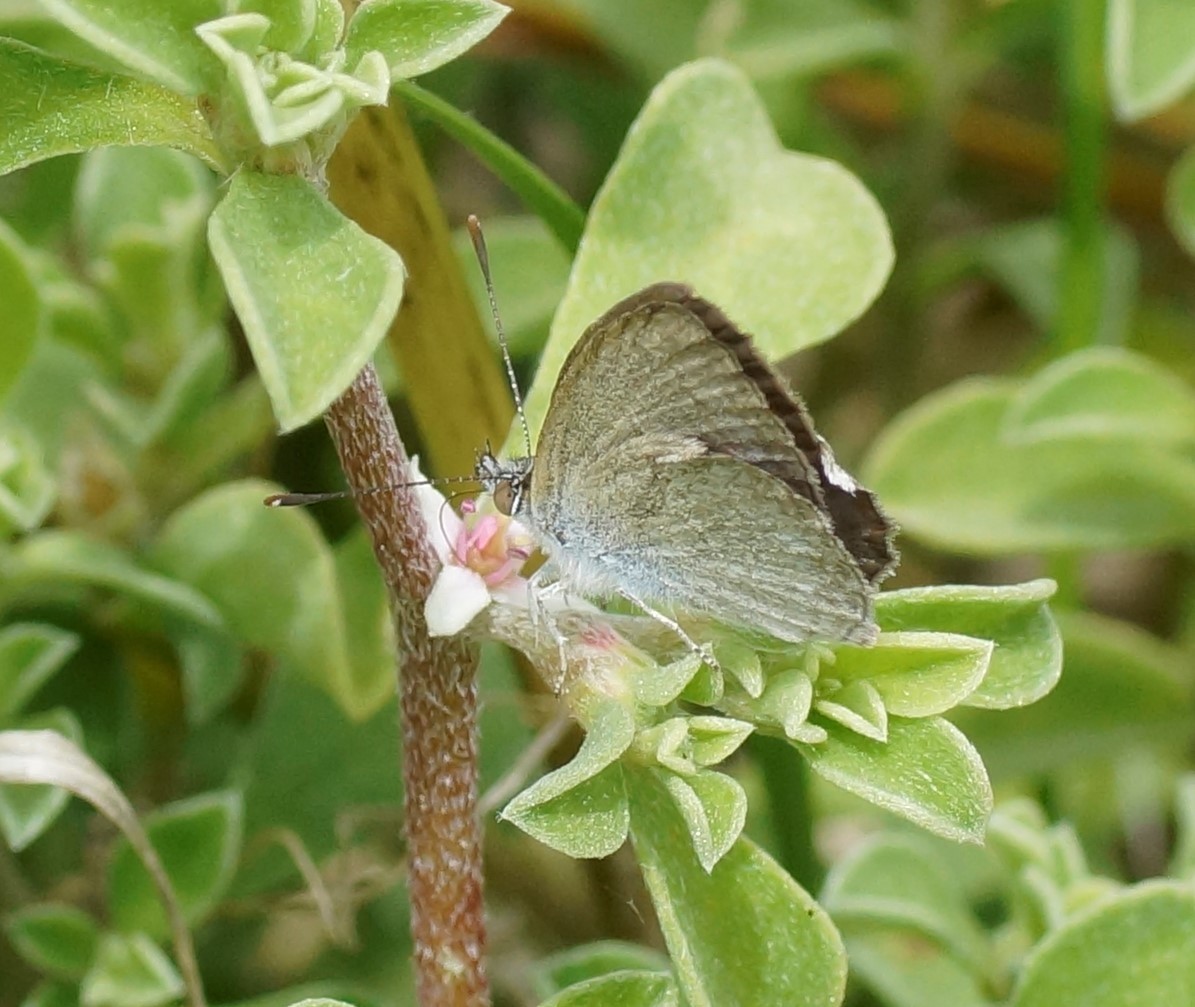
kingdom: Animalia
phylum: Arthropoda
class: Insecta
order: Lepidoptera
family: Lycaenidae
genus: Zizina
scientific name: Zizina otis
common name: Lesser grass blue
